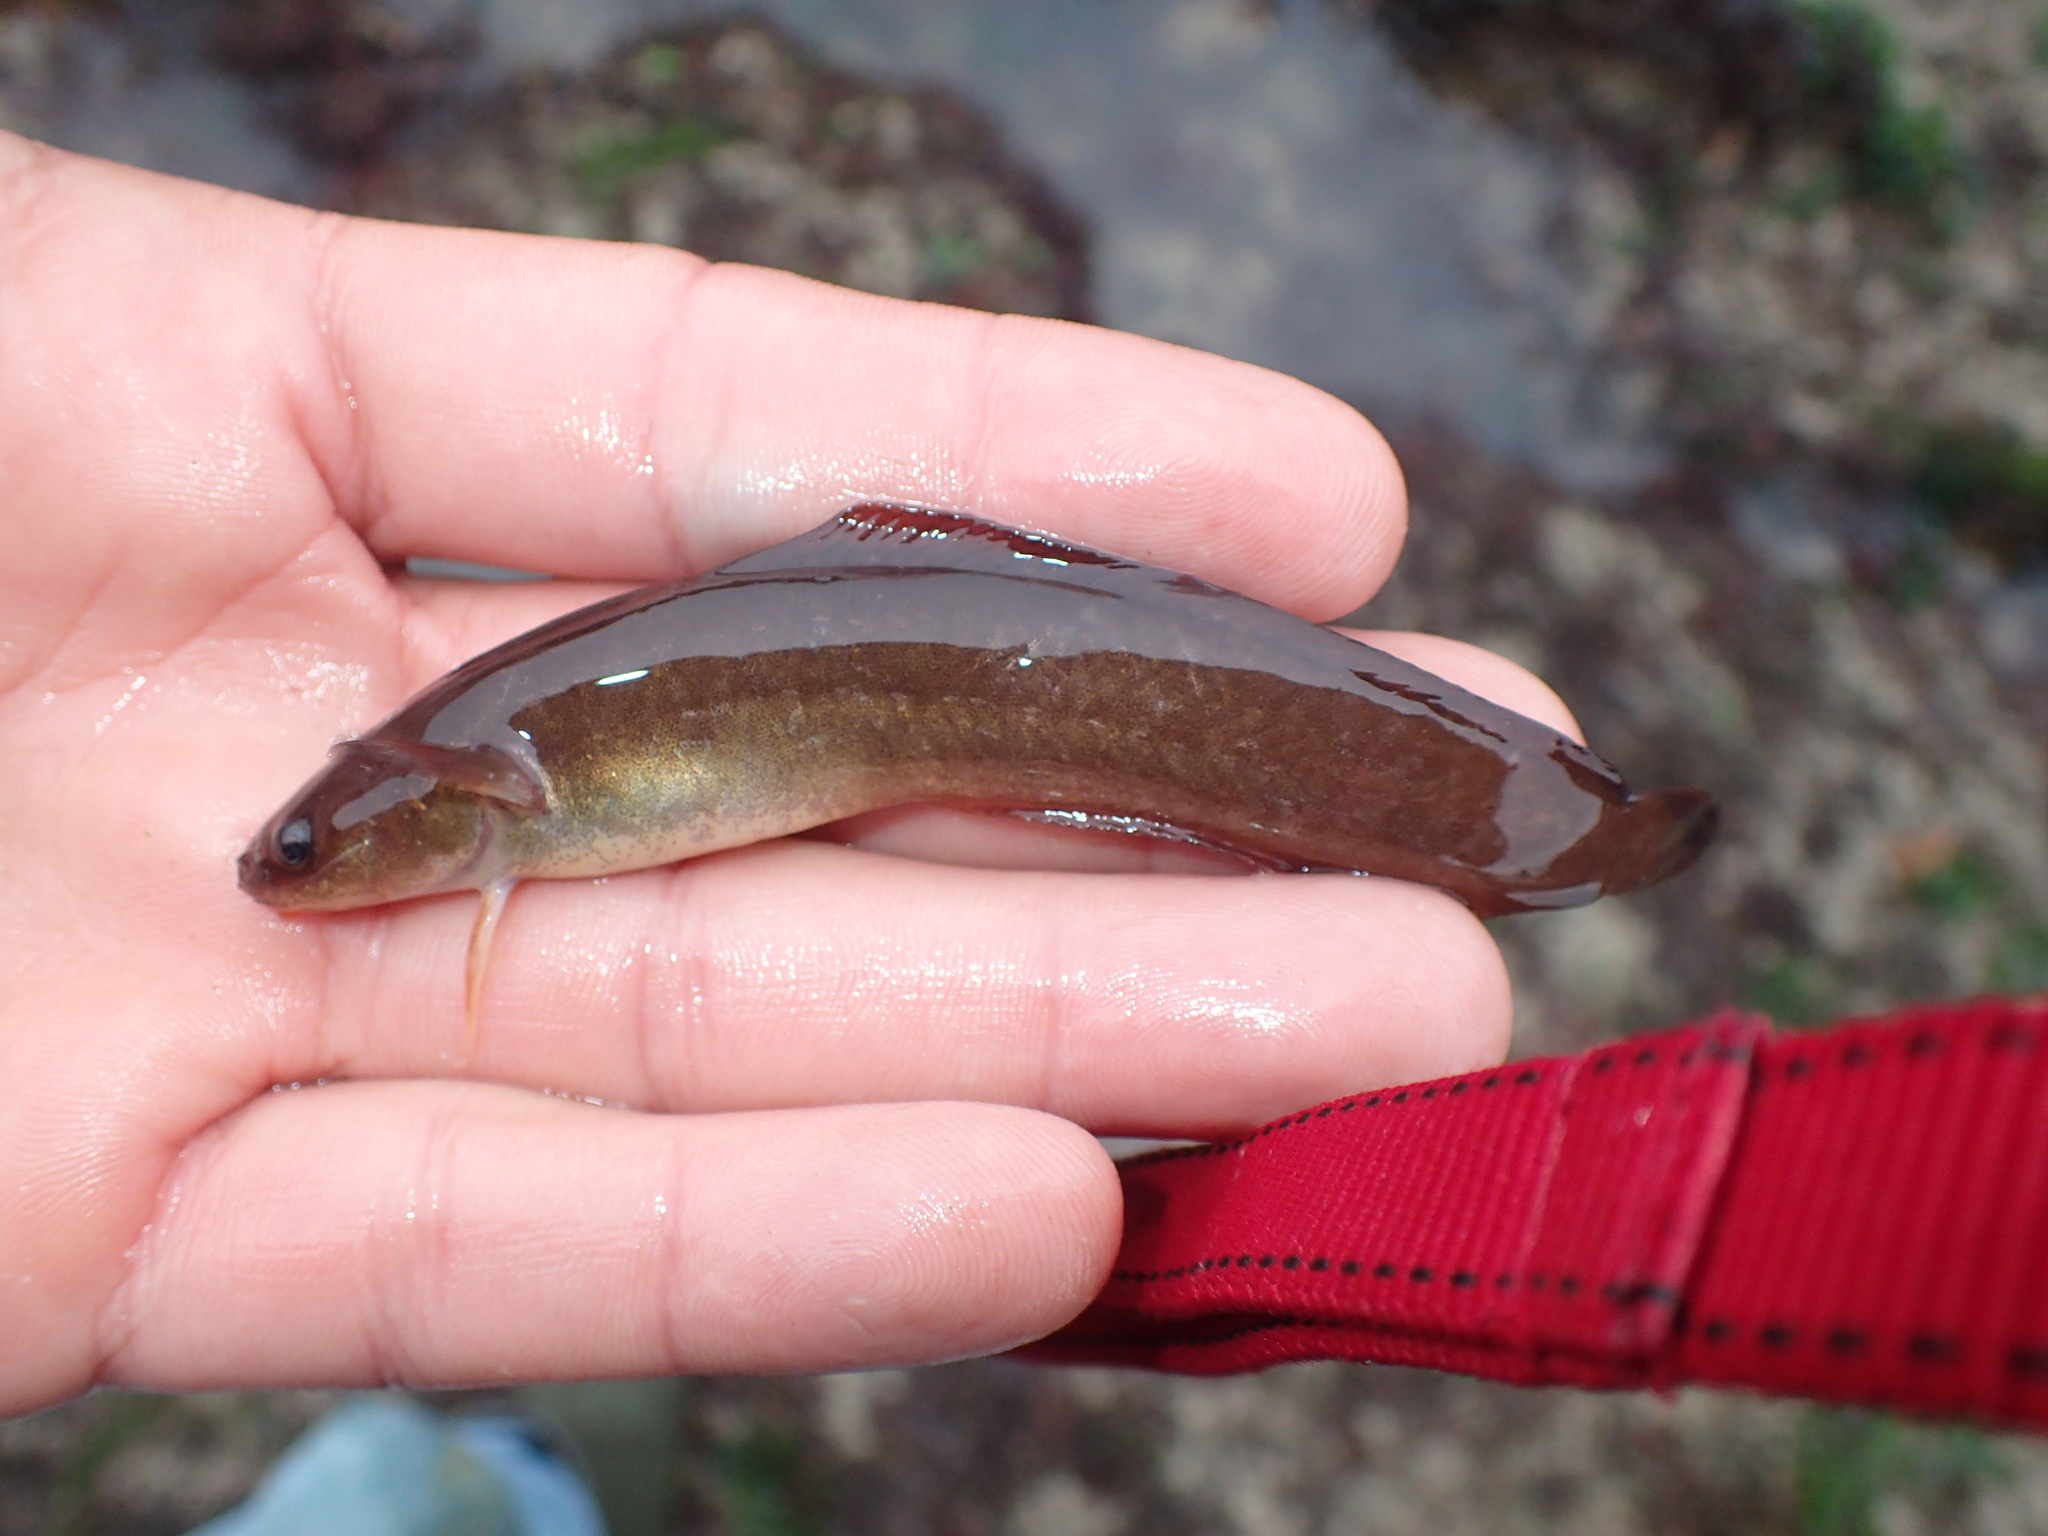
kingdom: Animalia
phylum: Chordata
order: Gadiformes
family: Lotidae
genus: Ciliata
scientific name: Ciliata mustela
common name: Five-bearded rockling
